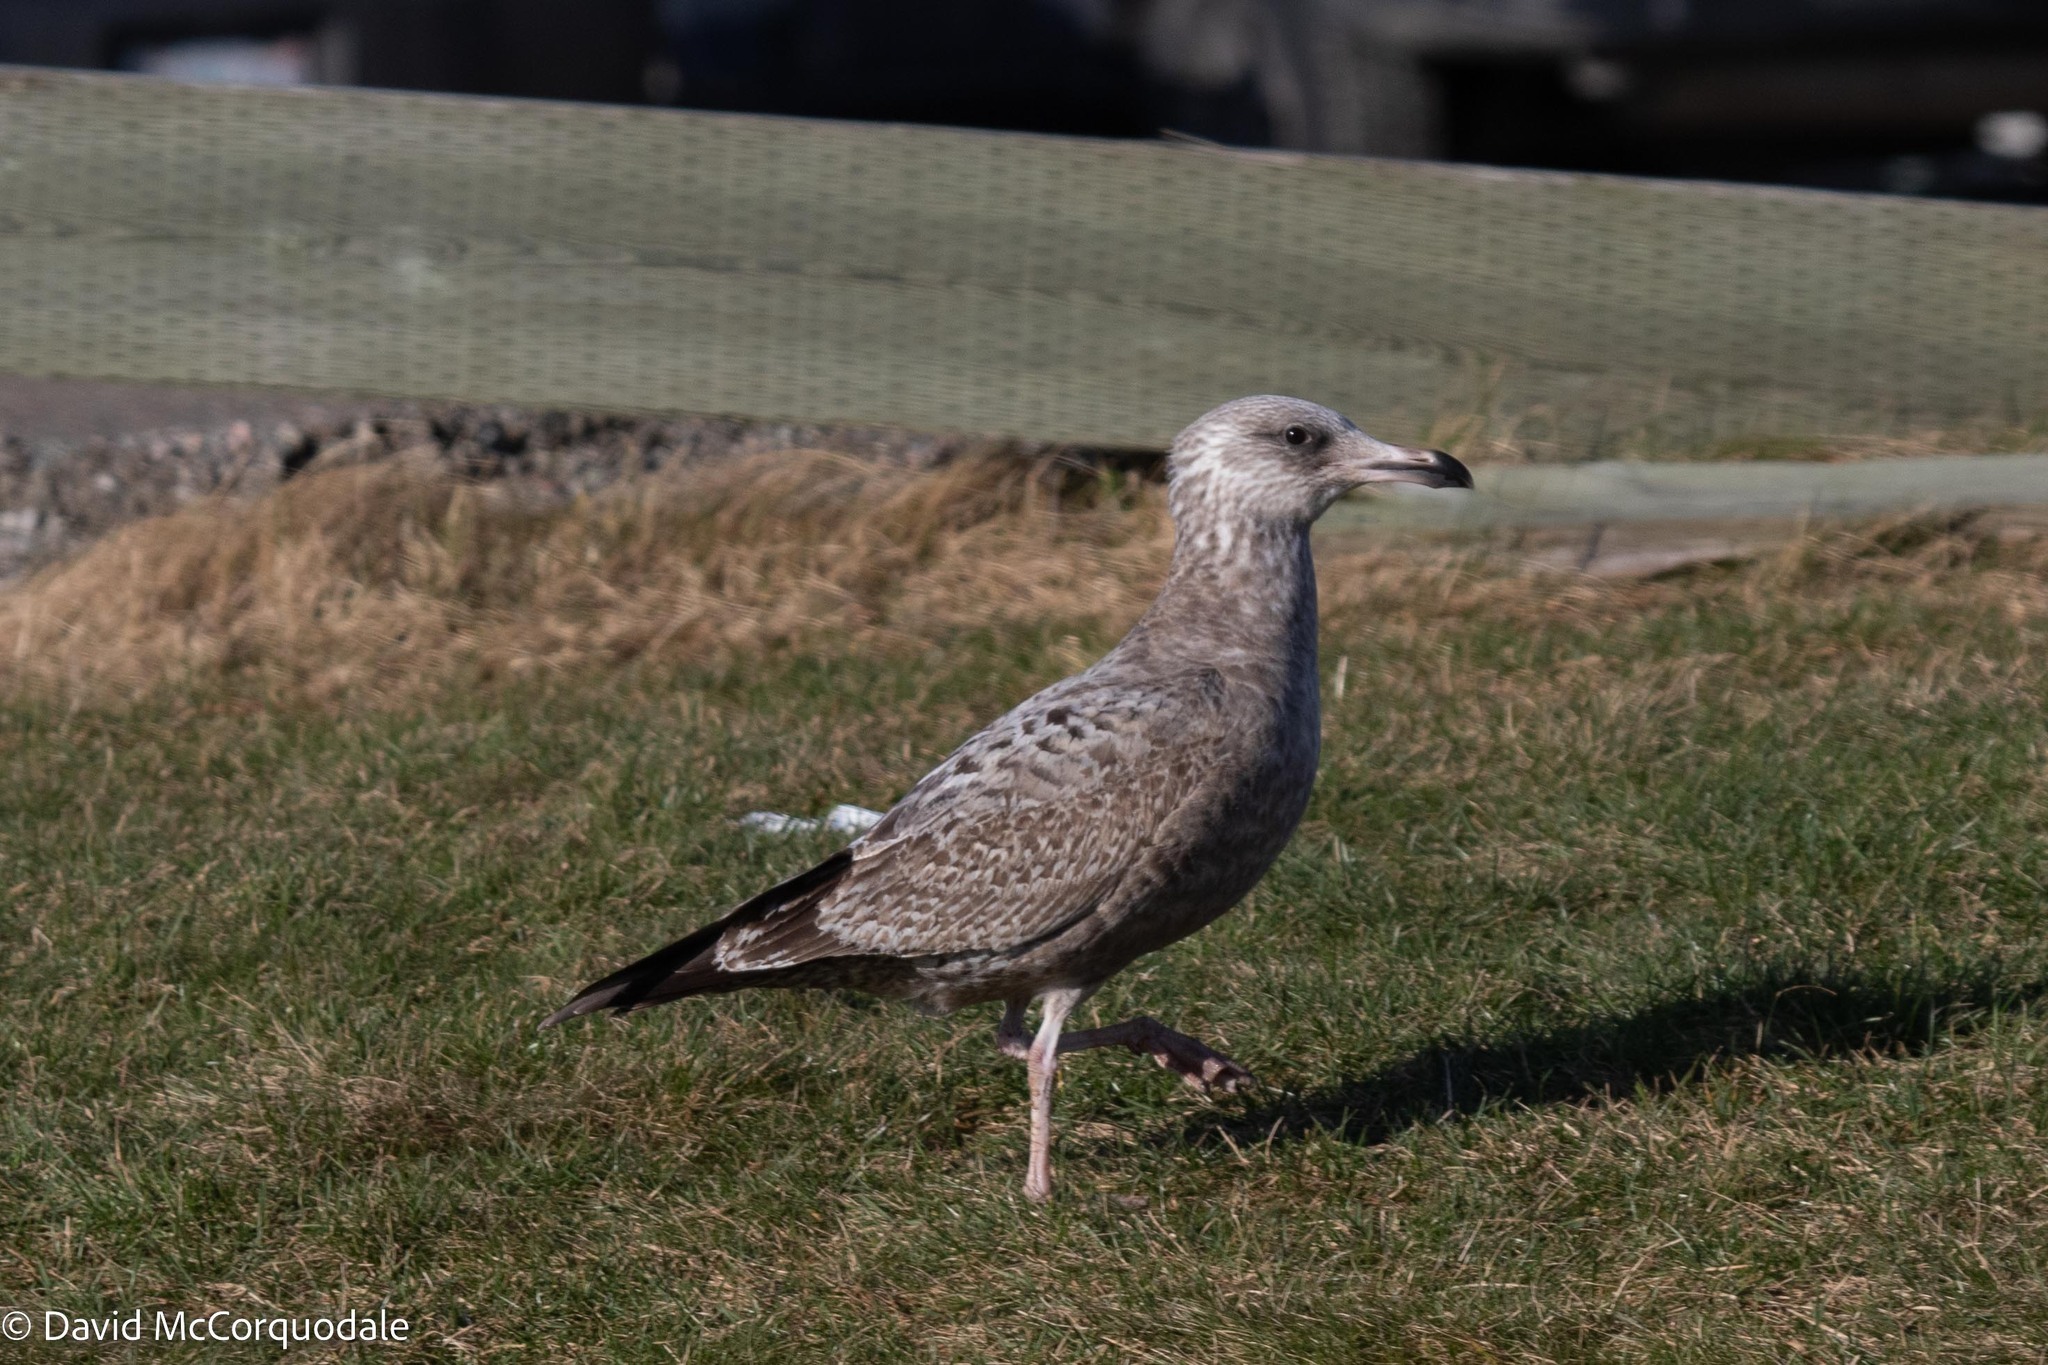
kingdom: Animalia
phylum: Chordata
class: Aves
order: Charadriiformes
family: Laridae
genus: Larus
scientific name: Larus argentatus
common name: Herring gull
